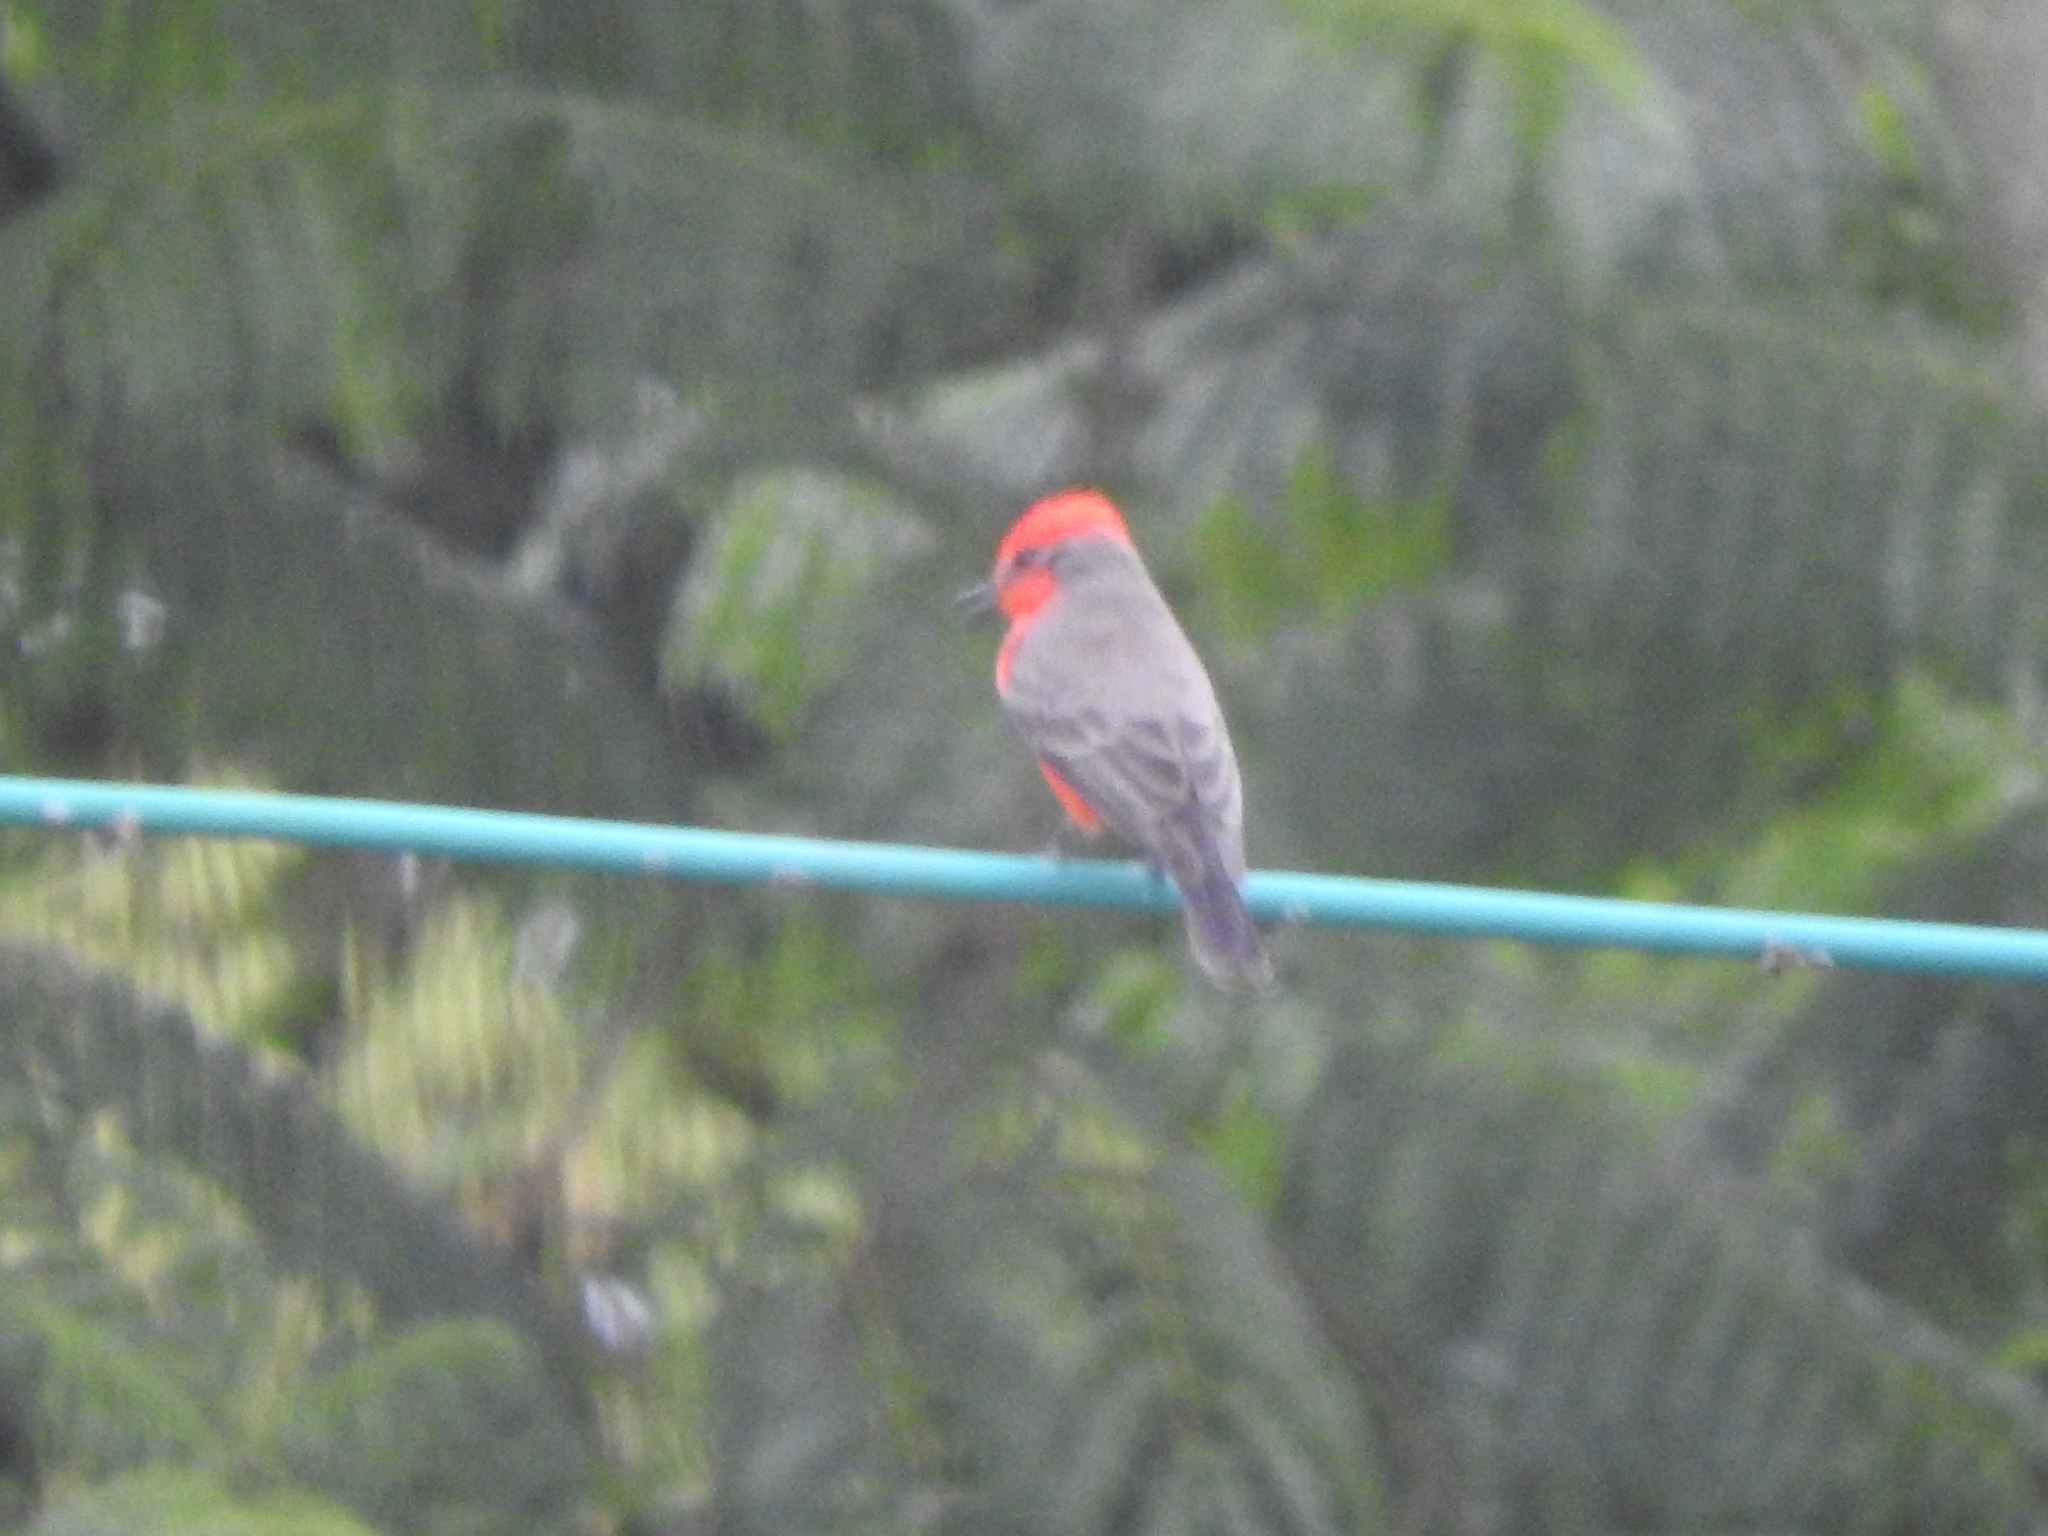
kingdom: Animalia
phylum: Chordata
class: Aves
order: Passeriformes
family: Tyrannidae
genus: Pyrocephalus
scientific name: Pyrocephalus rubinus
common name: Vermilion flycatcher
